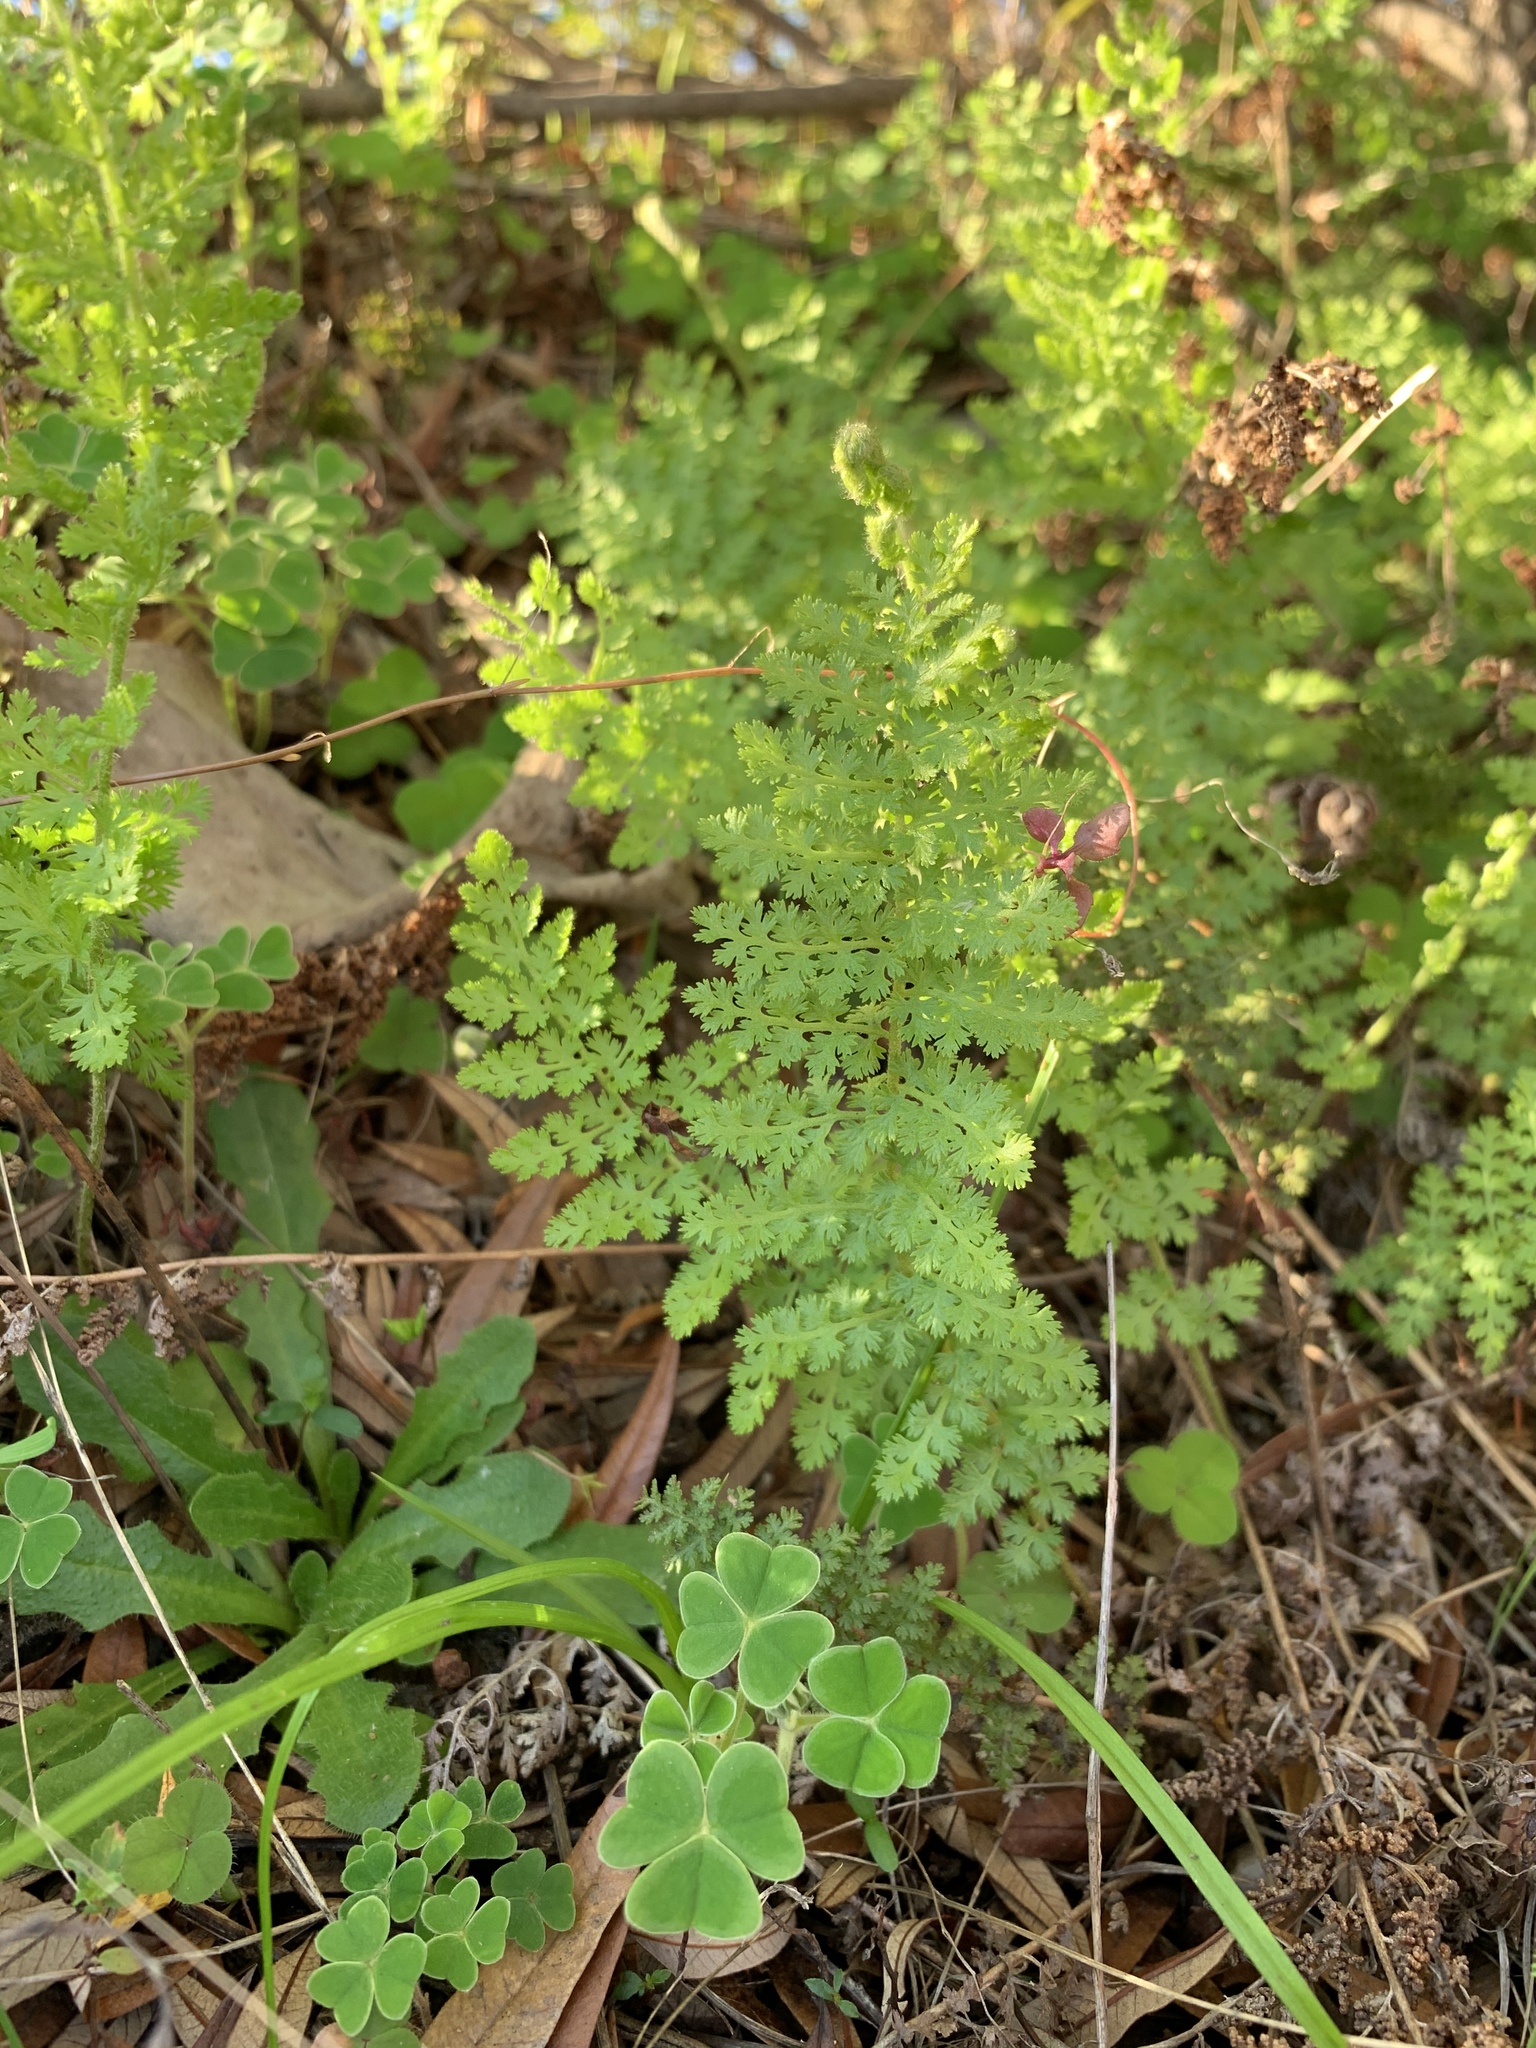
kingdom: Plantae
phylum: Tracheophyta
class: Polypodiopsida
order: Schizaeales
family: Anemiaceae
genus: Anemia
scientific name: Anemia caffrorum
